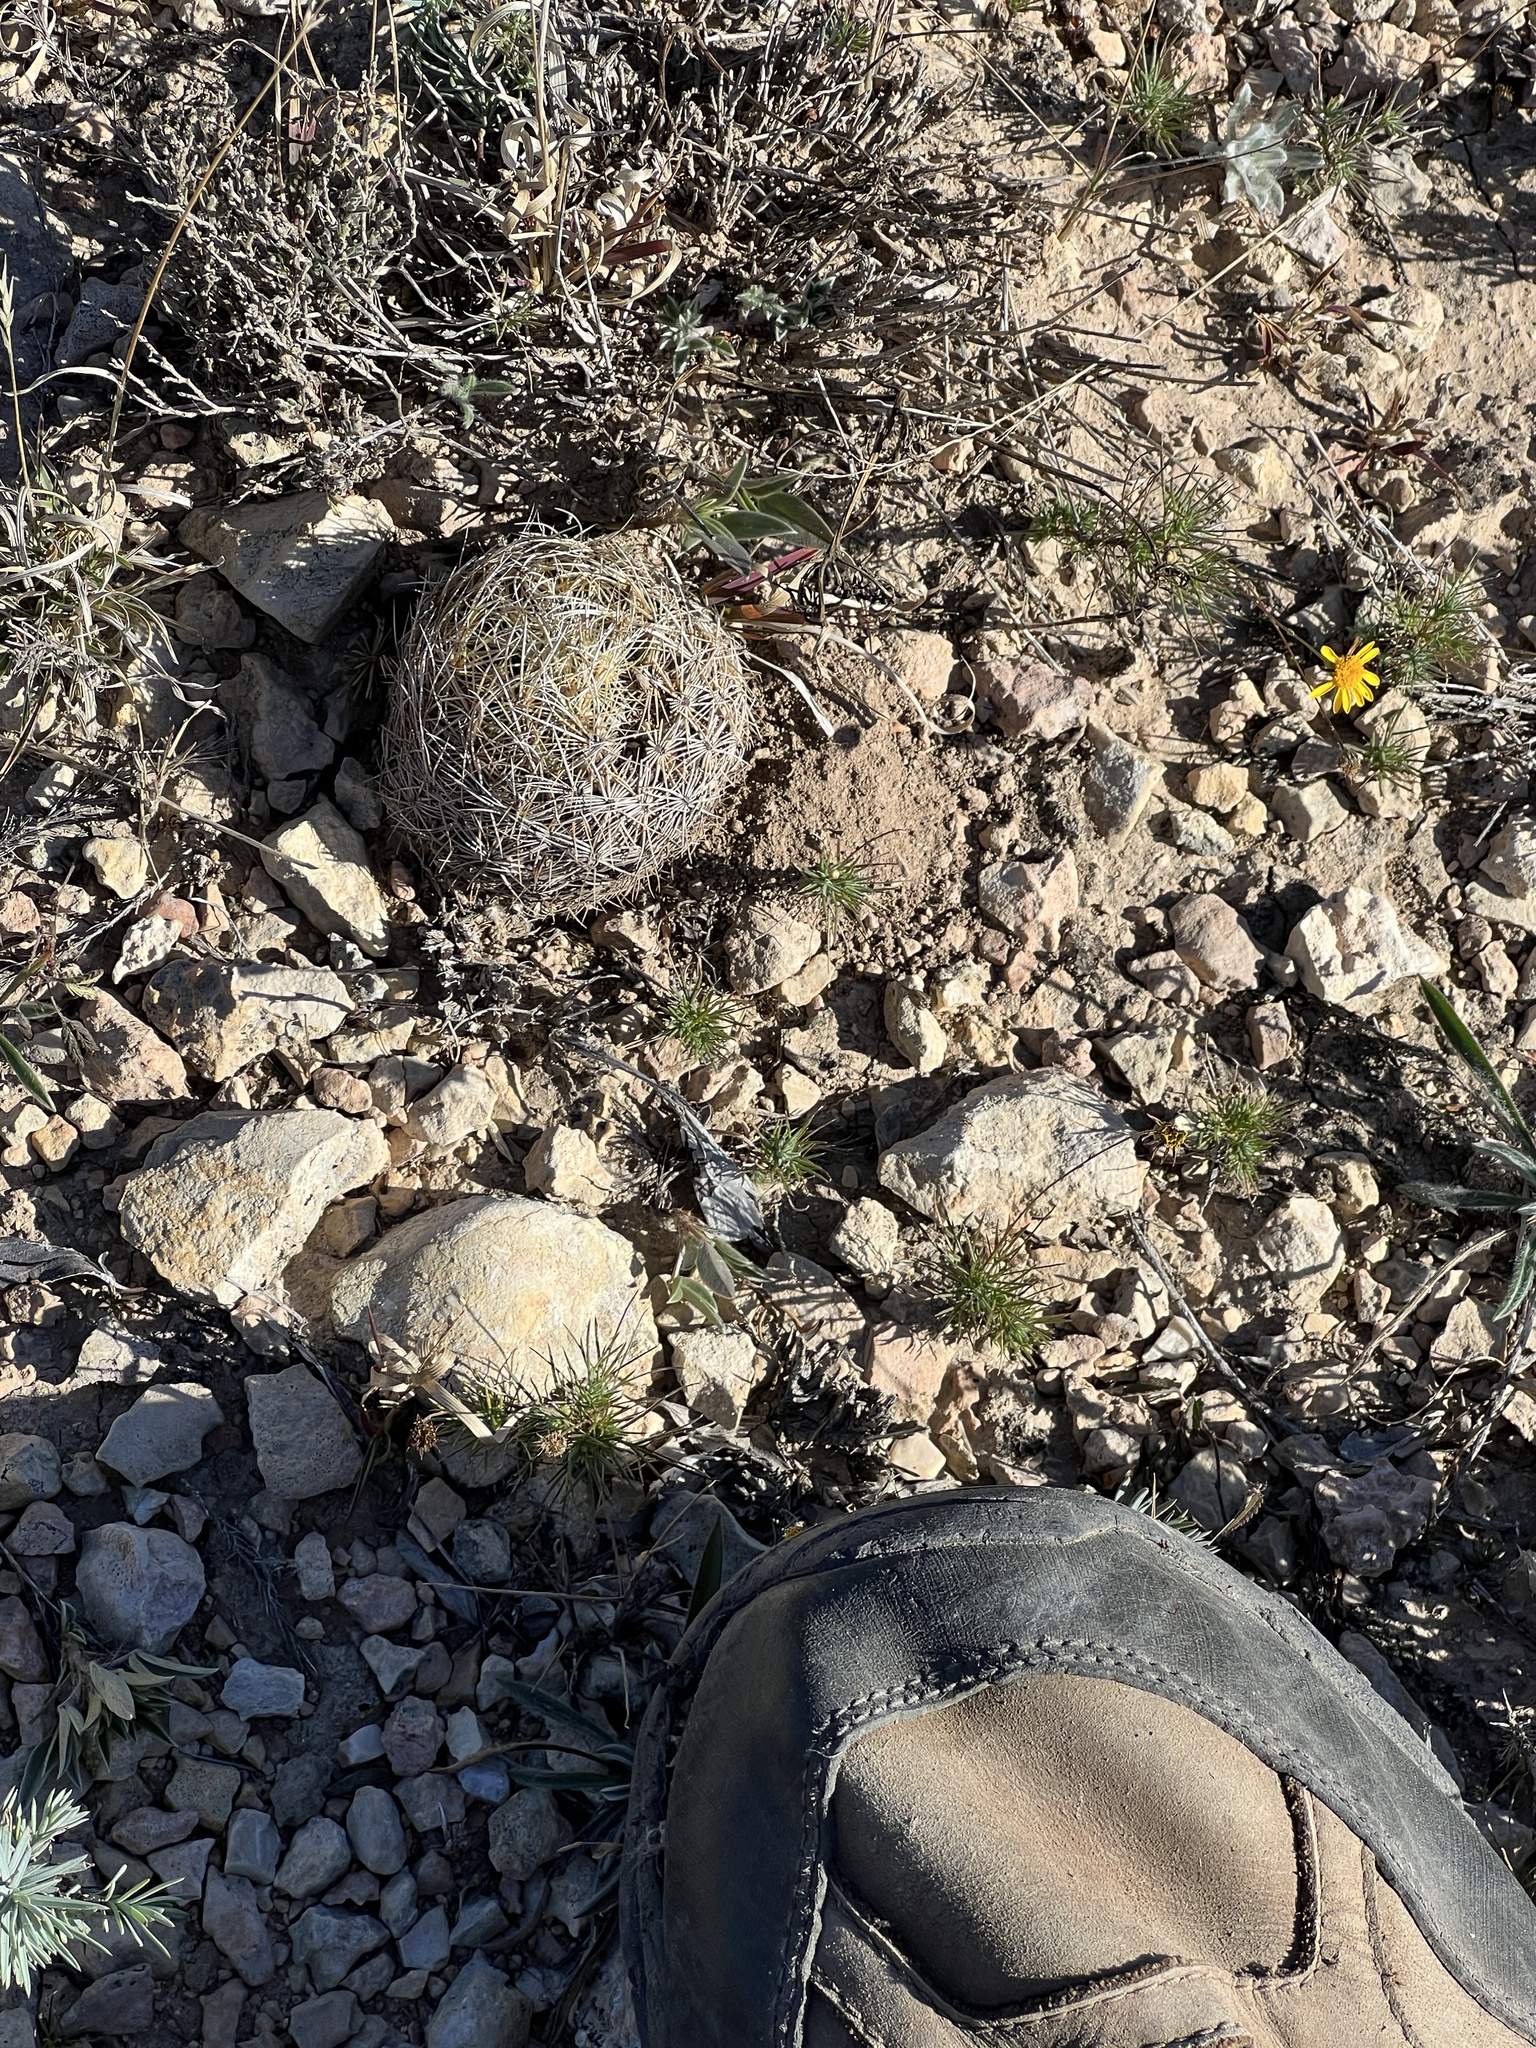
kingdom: Plantae
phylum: Tracheophyta
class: Magnoliopsida
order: Caryophyllales
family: Cactaceae
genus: Coryphantha
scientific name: Coryphantha echinus
